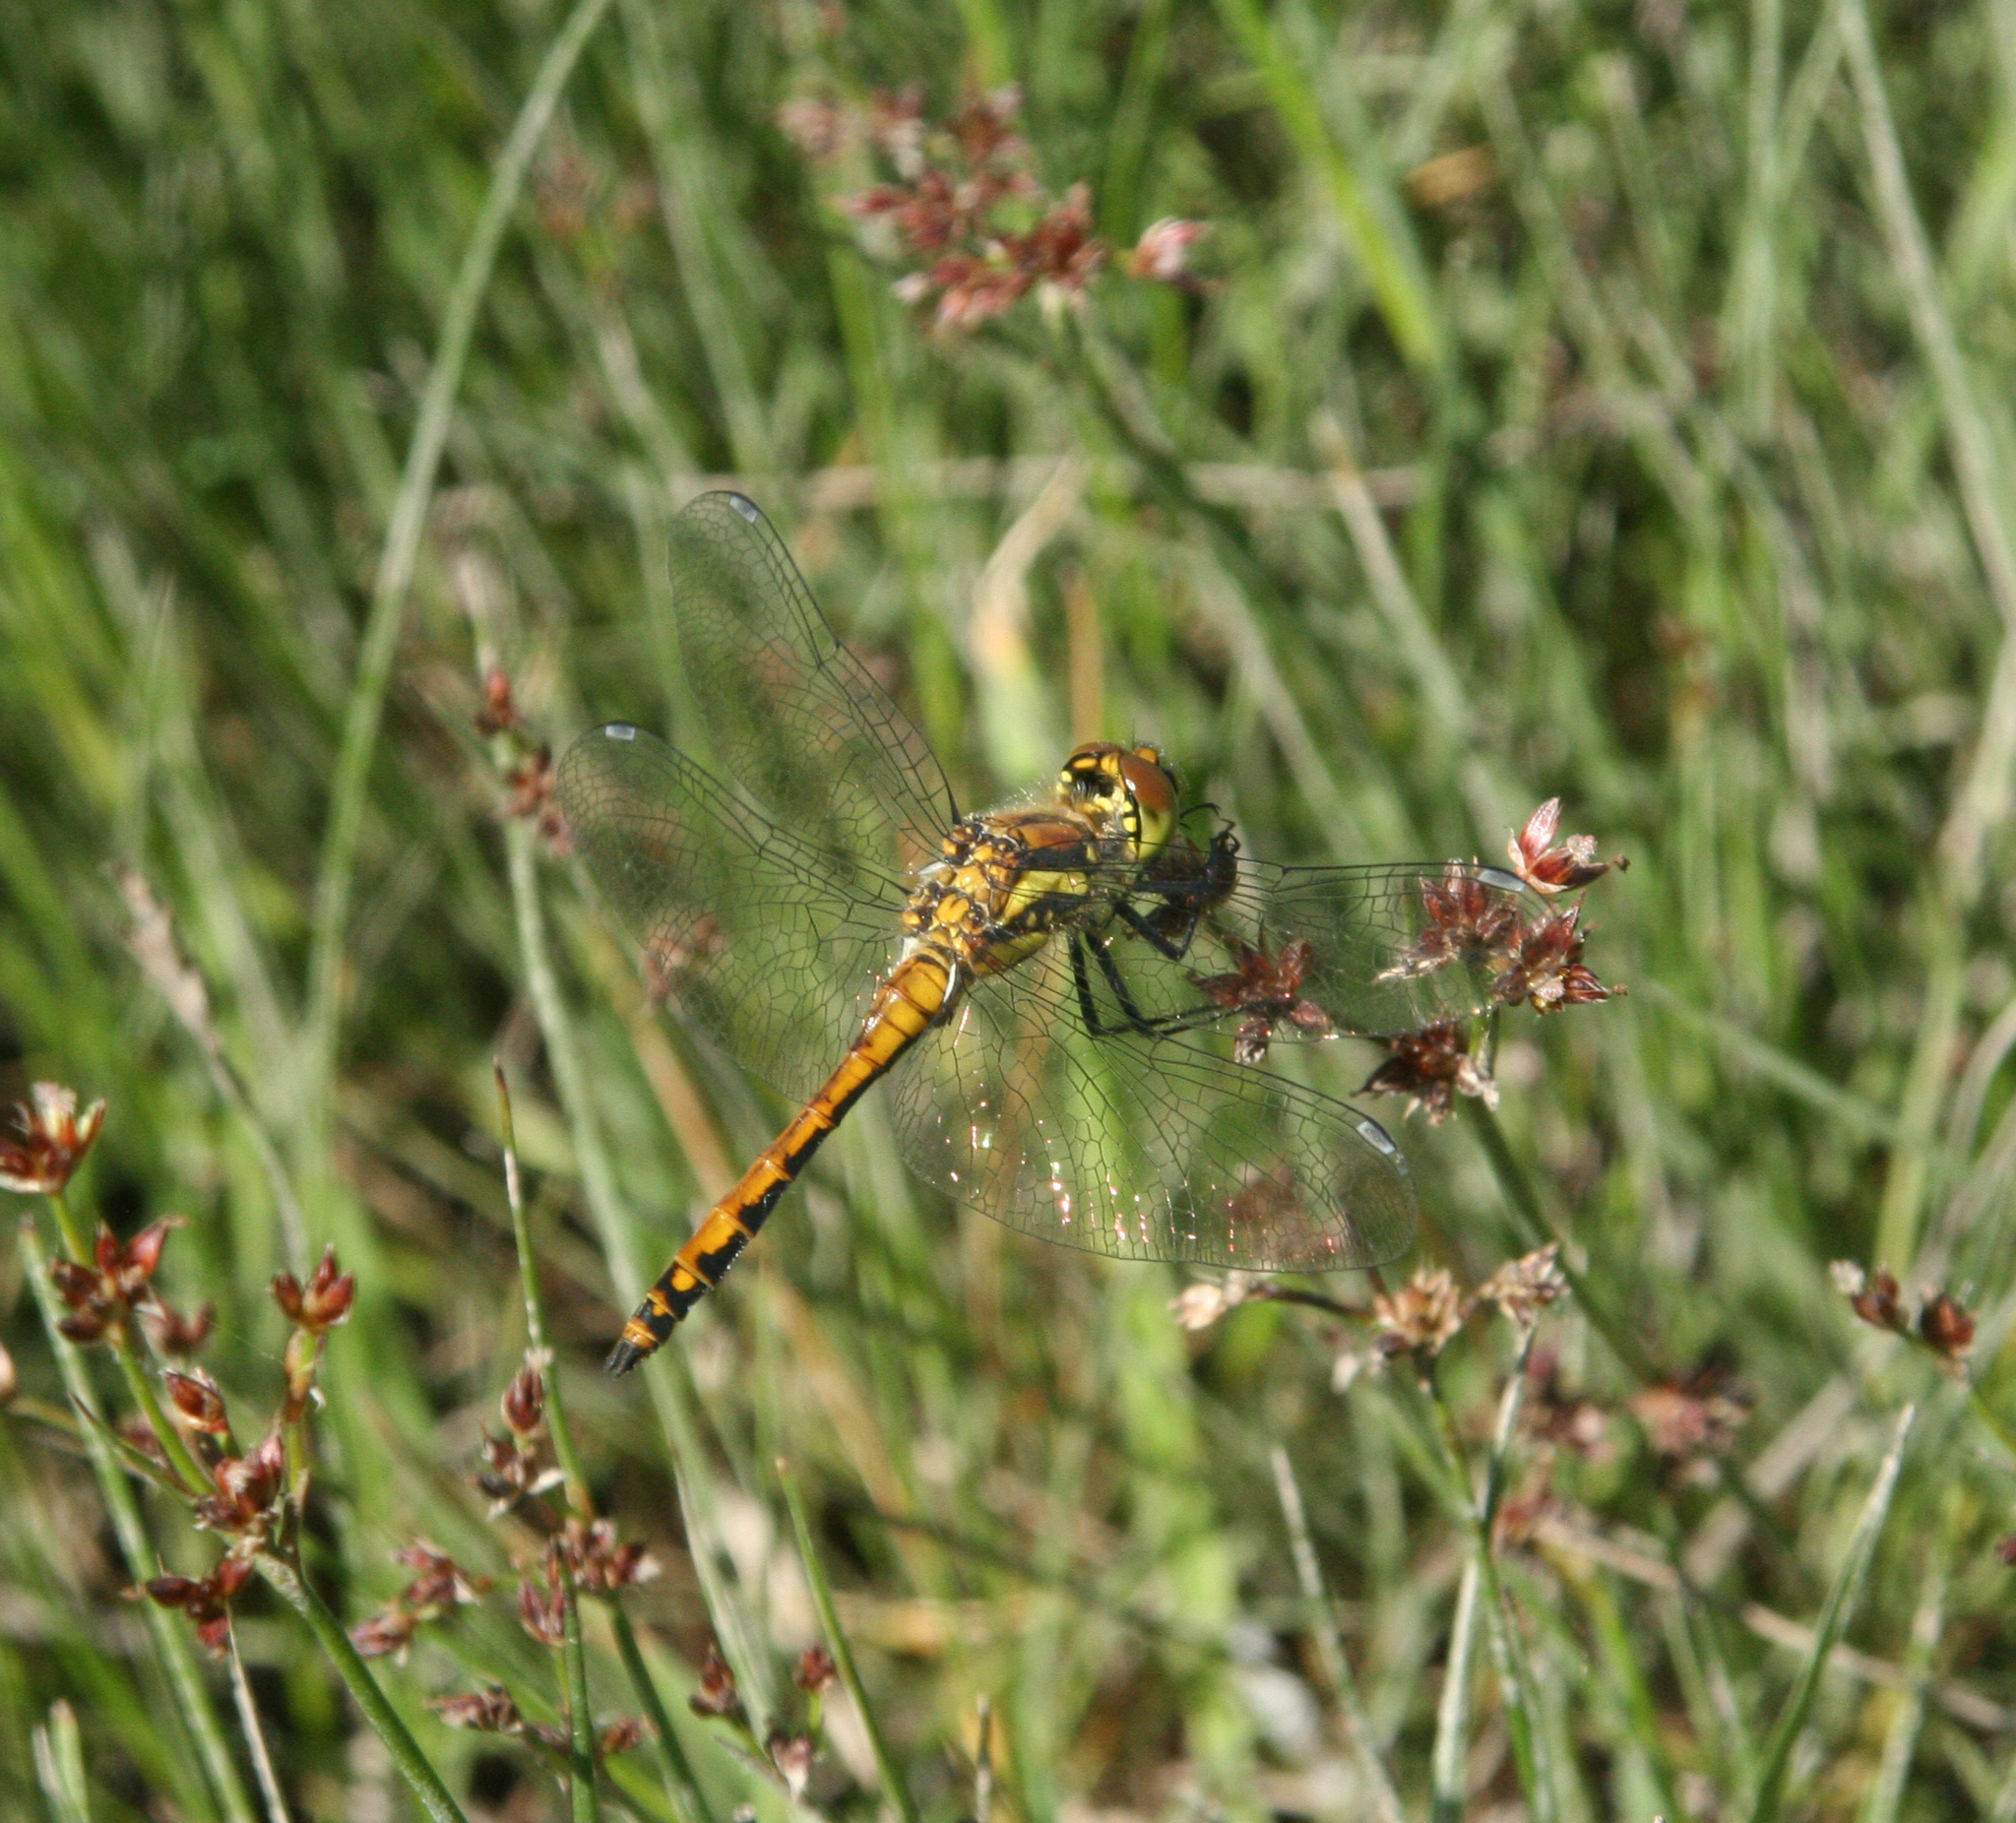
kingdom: Animalia
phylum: Arthropoda
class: Insecta
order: Odonata
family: Libellulidae
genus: Sympetrum
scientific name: Sympetrum danae
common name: Black darter
